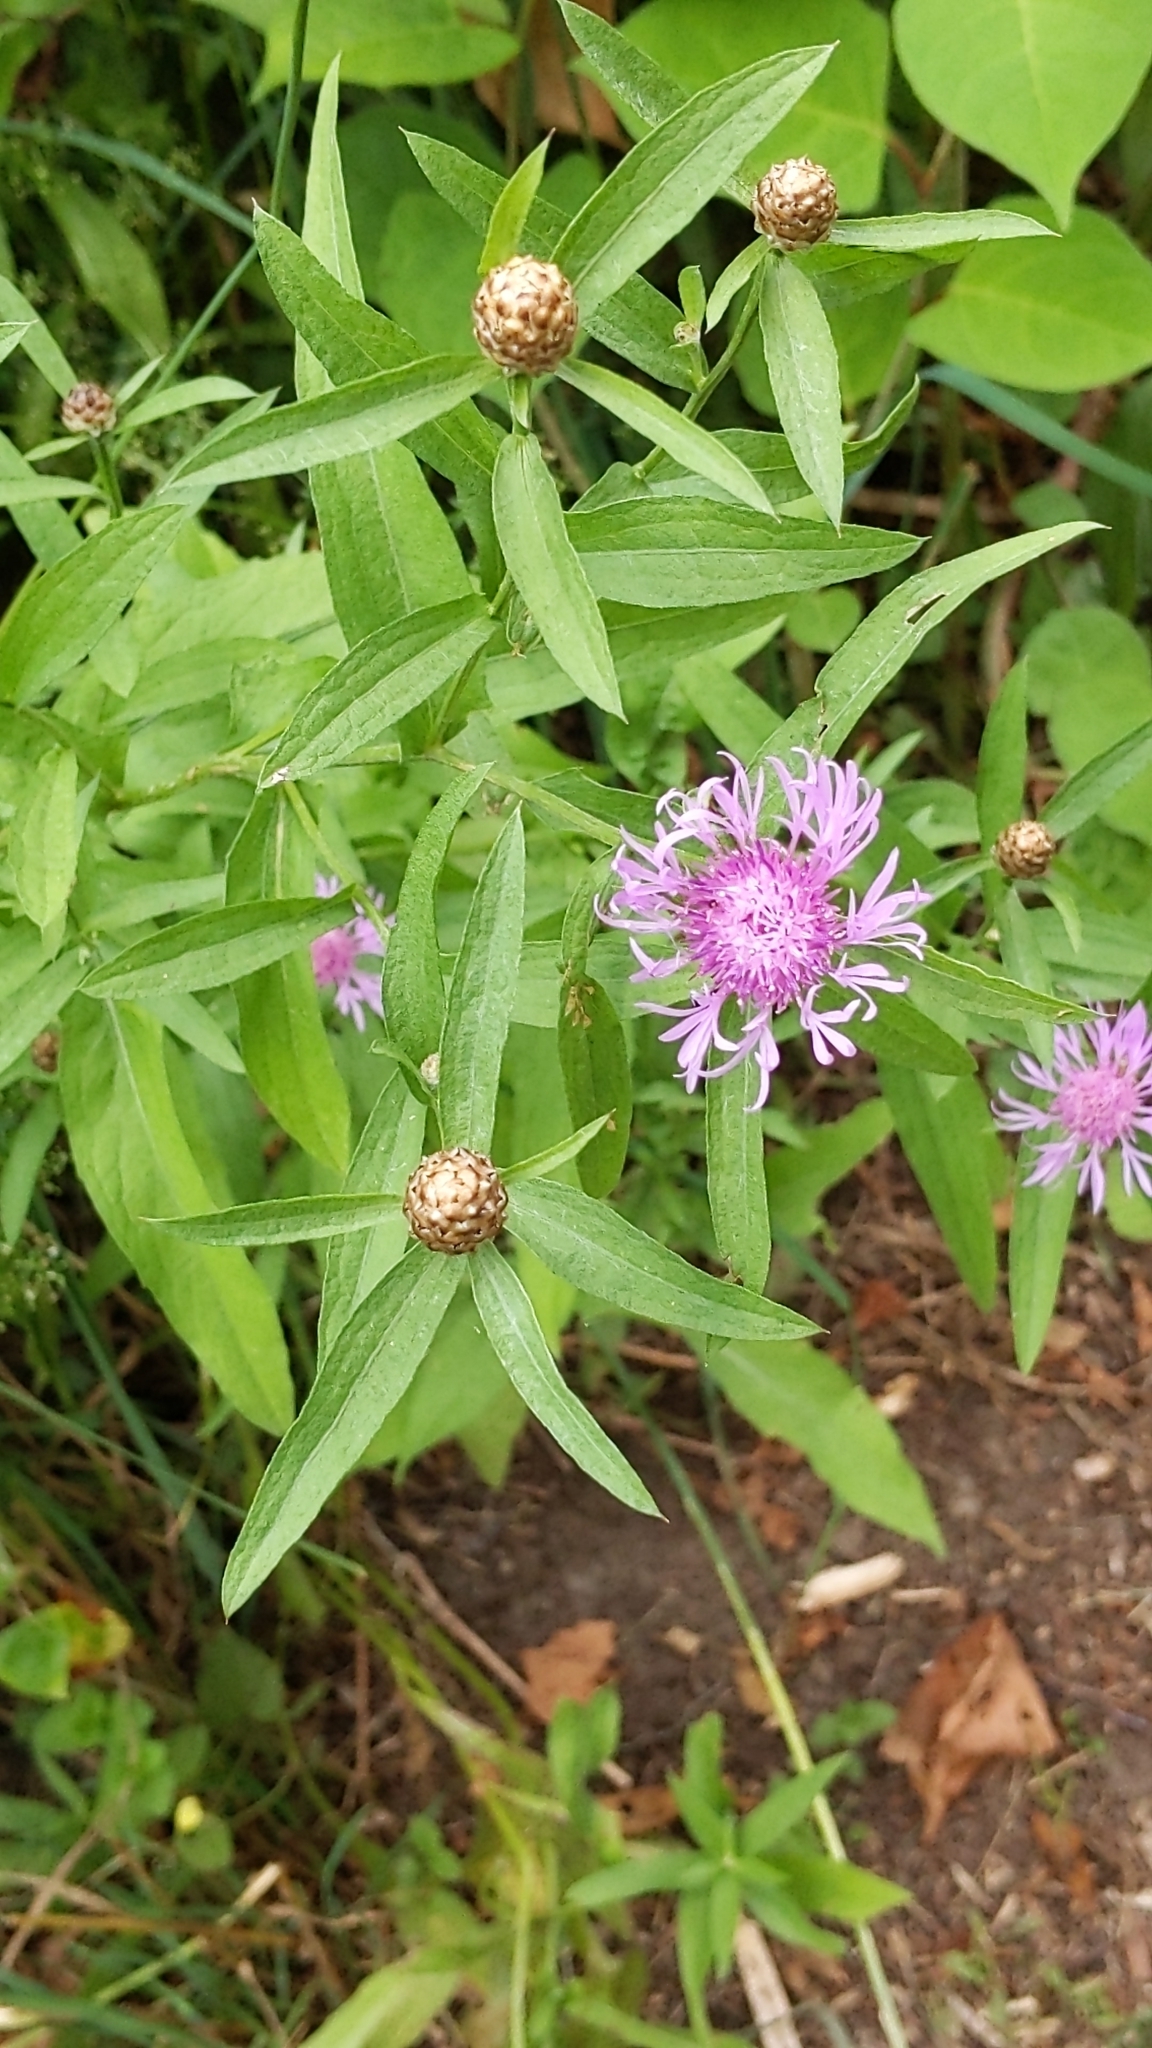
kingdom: Plantae
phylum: Tracheophyta
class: Magnoliopsida
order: Asterales
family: Asteraceae
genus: Centaurea
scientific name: Centaurea jacea
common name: Brown knapweed
